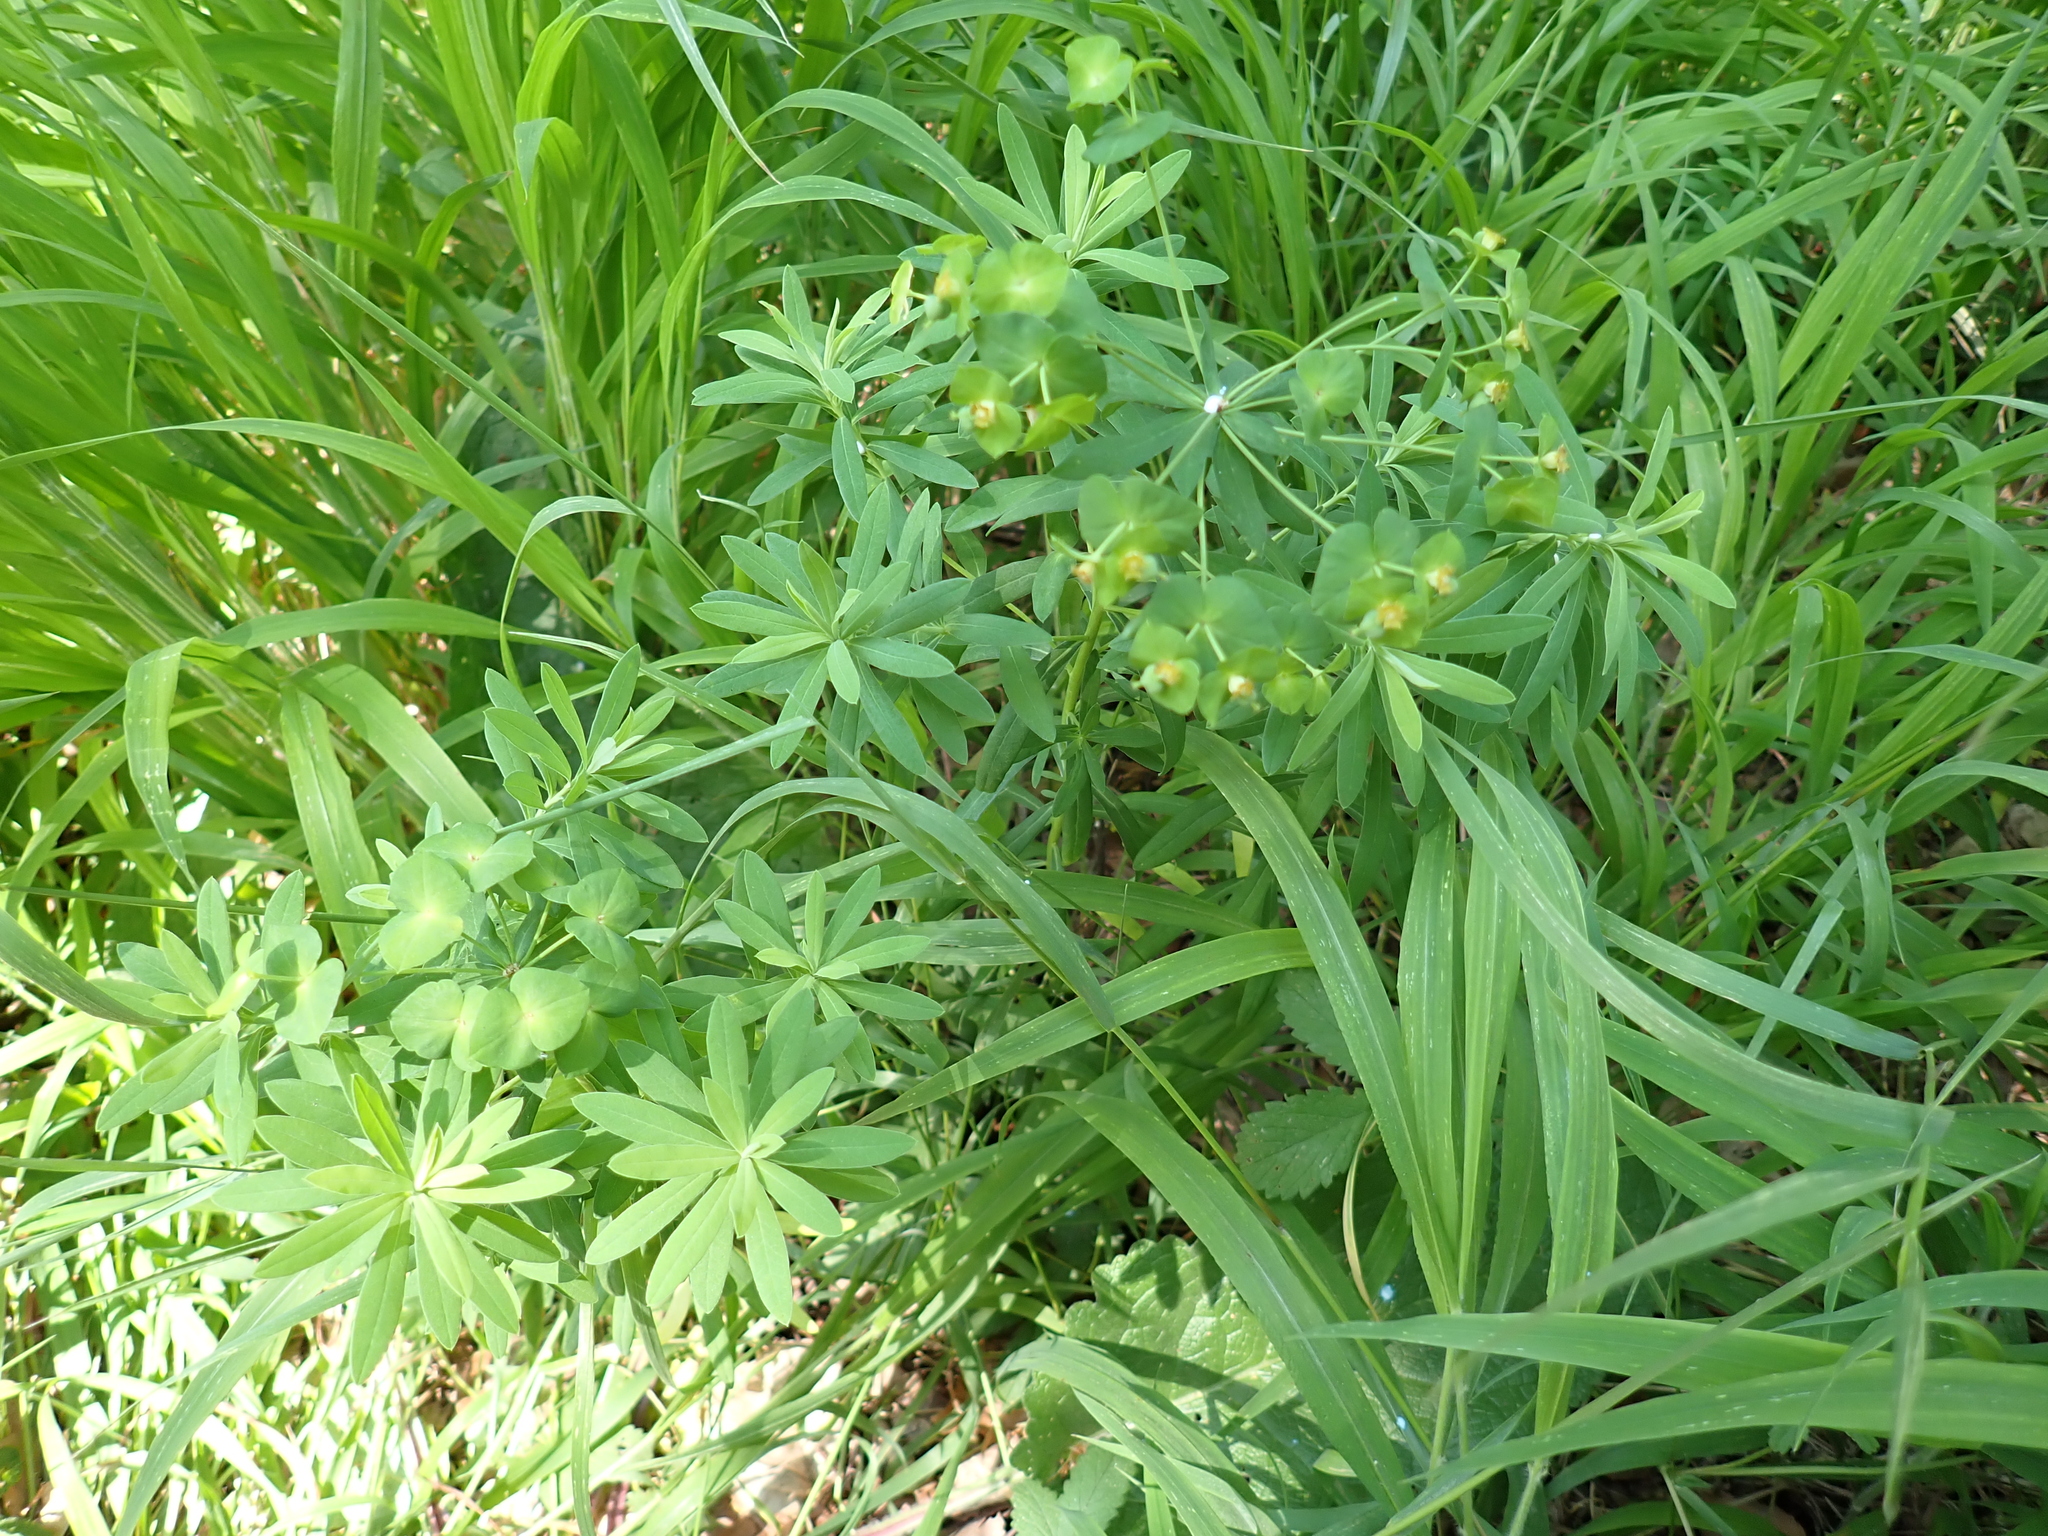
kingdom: Plantae
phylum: Tracheophyta
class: Magnoliopsida
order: Malpighiales
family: Euphorbiaceae
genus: Euphorbia
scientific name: Euphorbia esula
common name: Leafy spurge
